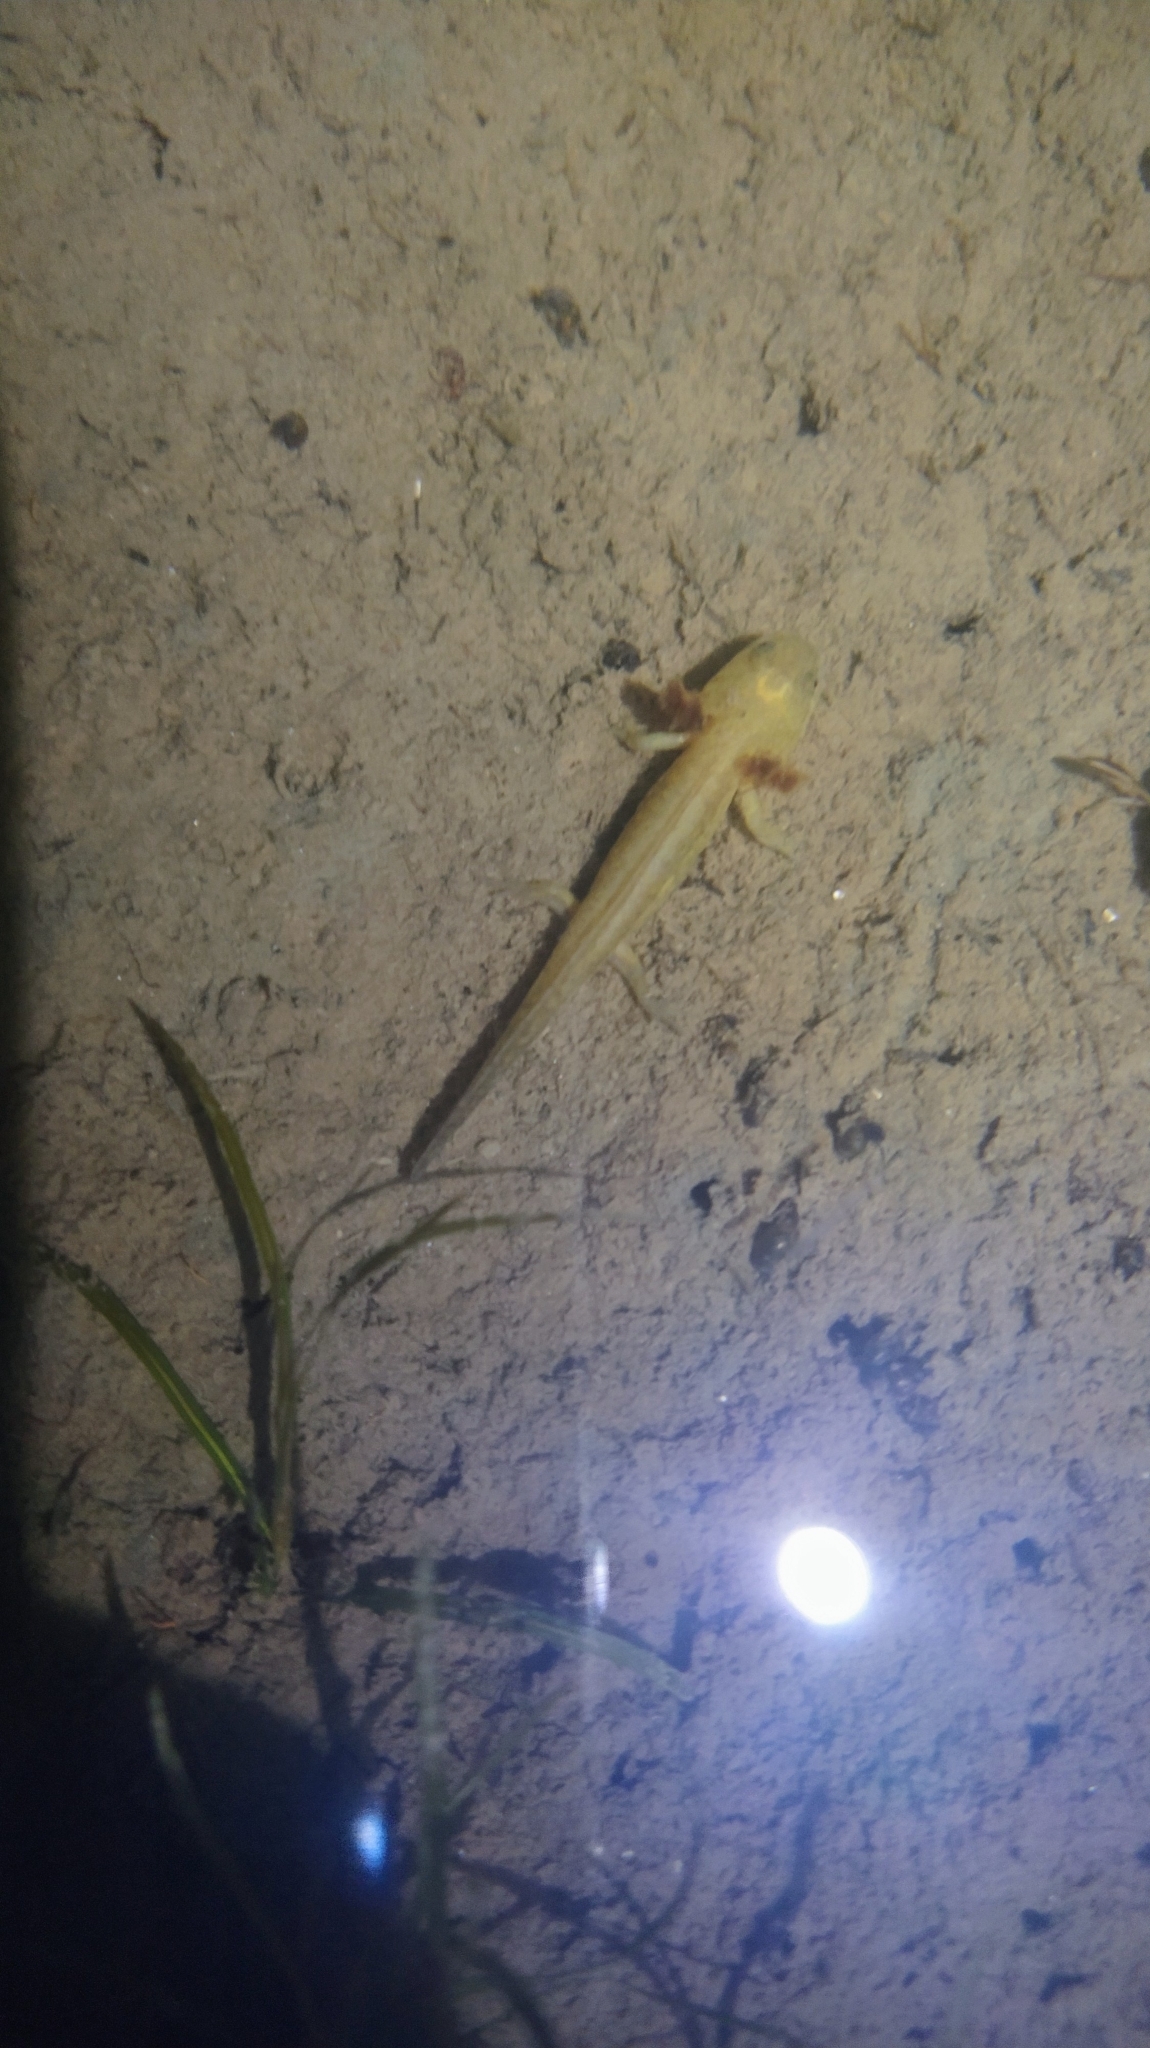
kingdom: Animalia
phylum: Chordata
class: Amphibia
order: Caudata
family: Ambystomatidae
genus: Ambystoma
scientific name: Ambystoma maculatum
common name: Spotted salamander
